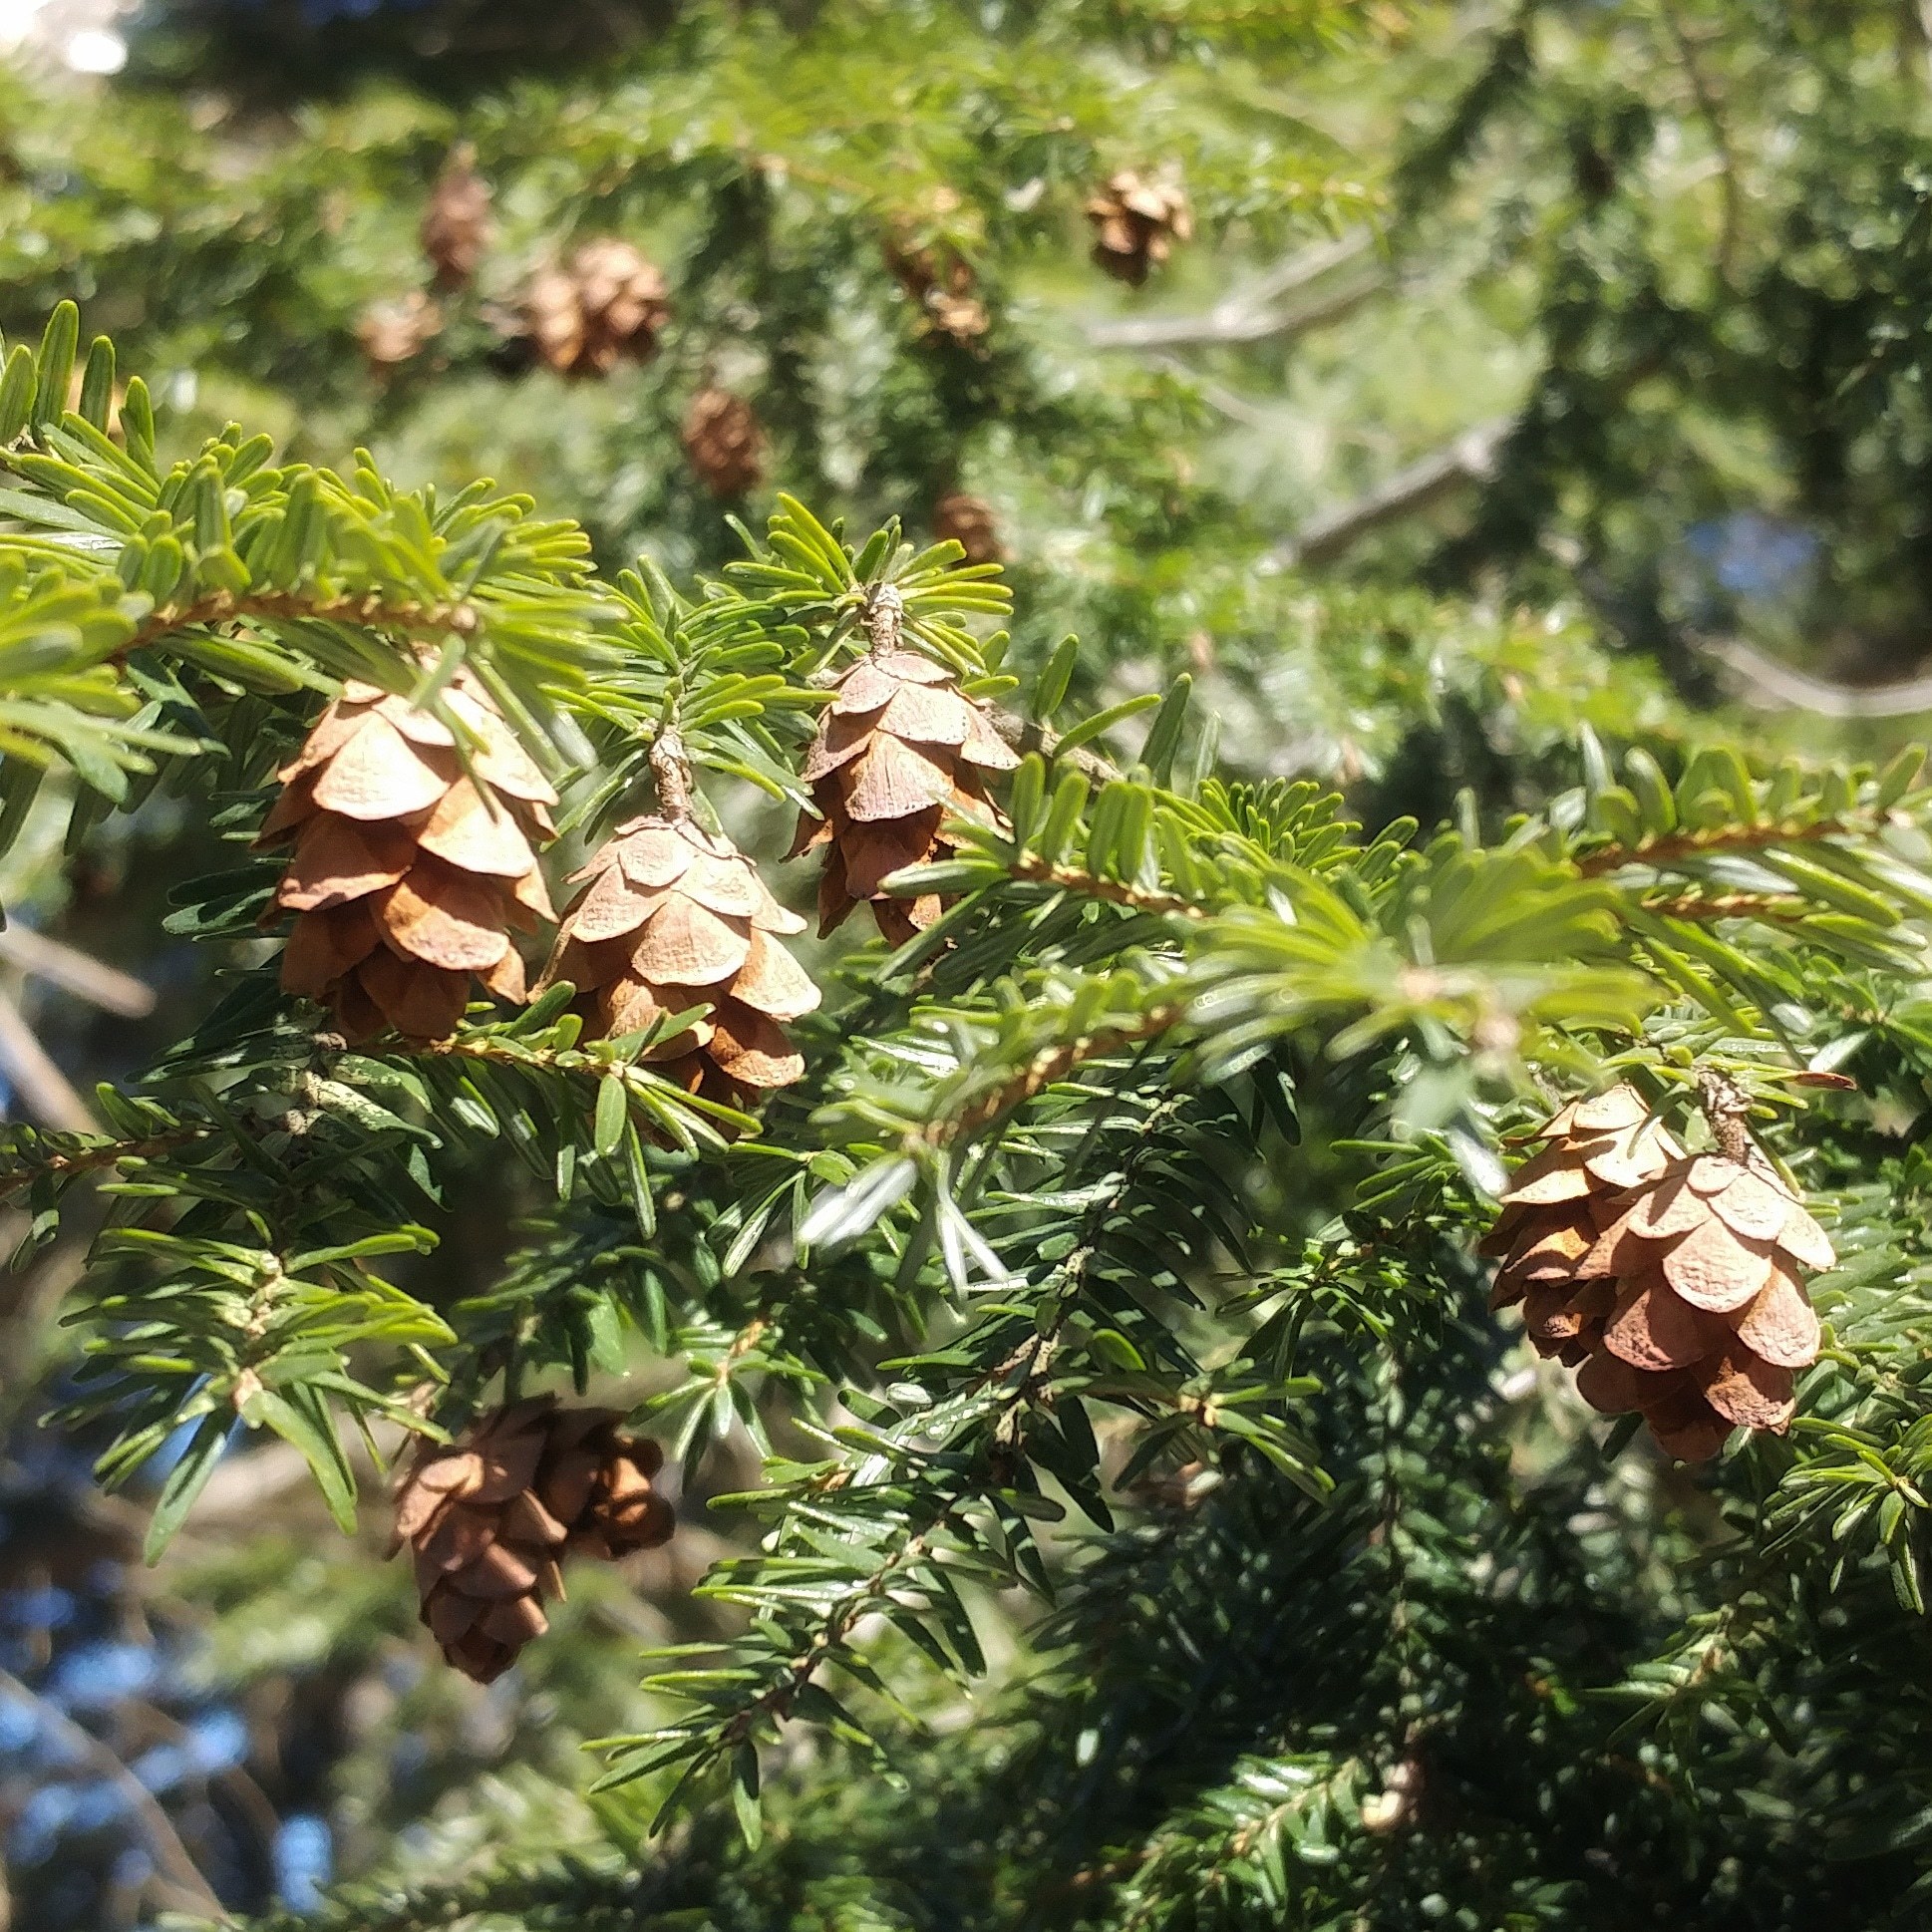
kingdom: Plantae
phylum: Tracheophyta
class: Pinopsida
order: Pinales
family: Pinaceae
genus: Tsuga
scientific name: Tsuga canadensis
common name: Eastern hemlock
